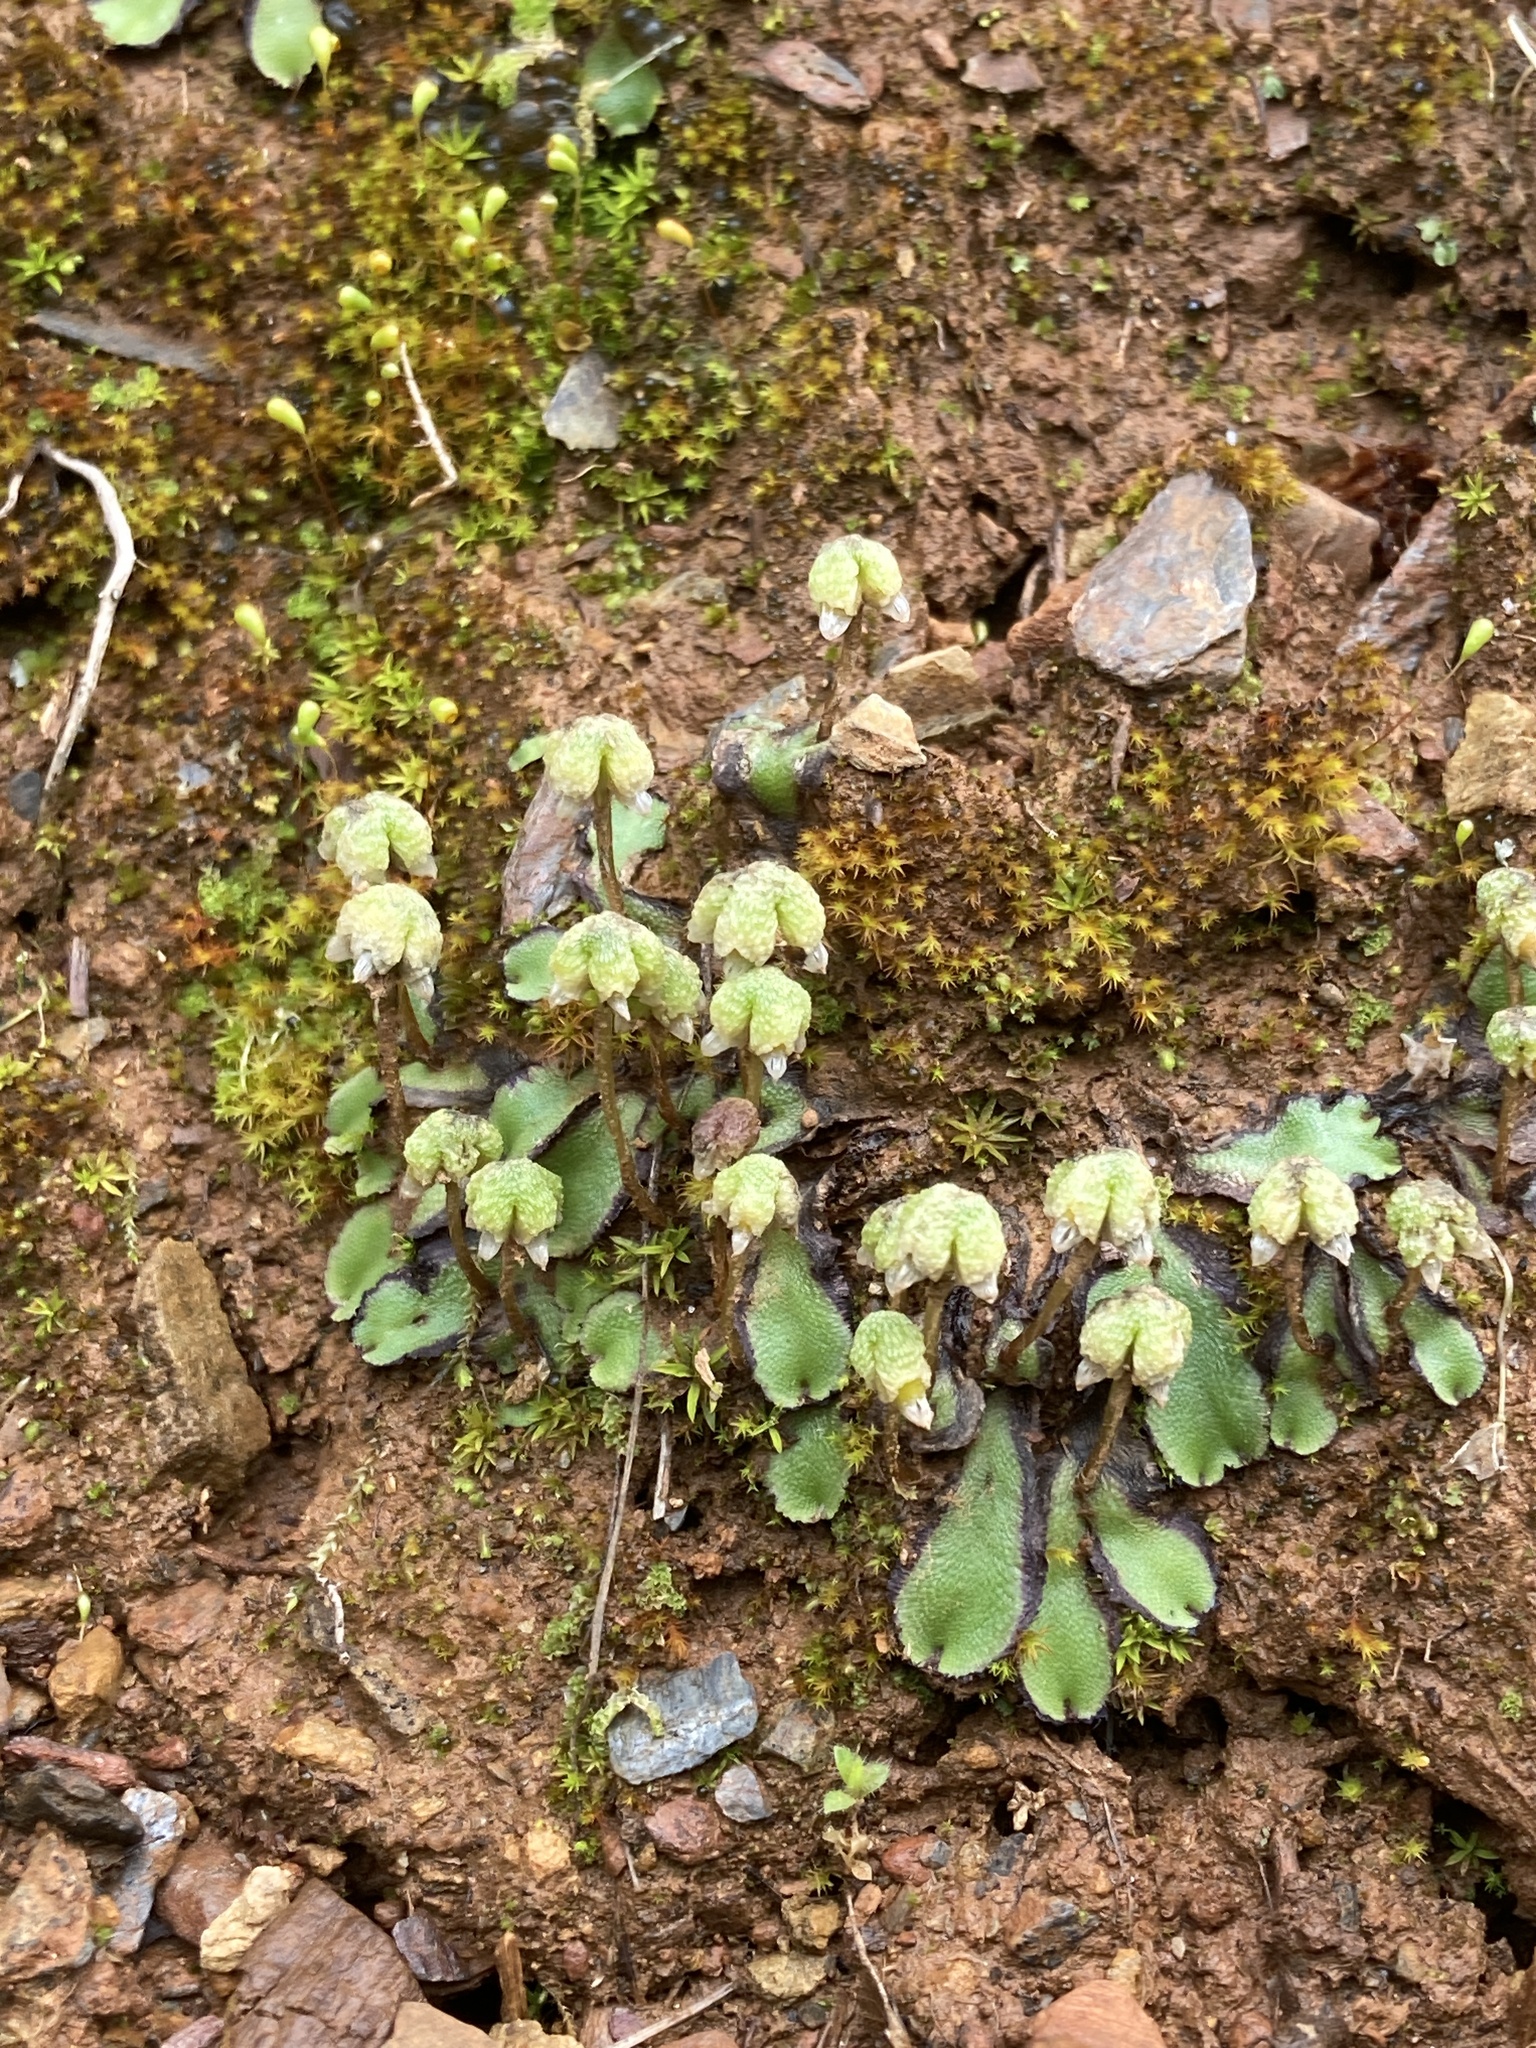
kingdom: Plantae
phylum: Marchantiophyta
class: Marchantiopsida
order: Marchantiales
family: Aytoniaceae
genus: Asterella
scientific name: Asterella californica
